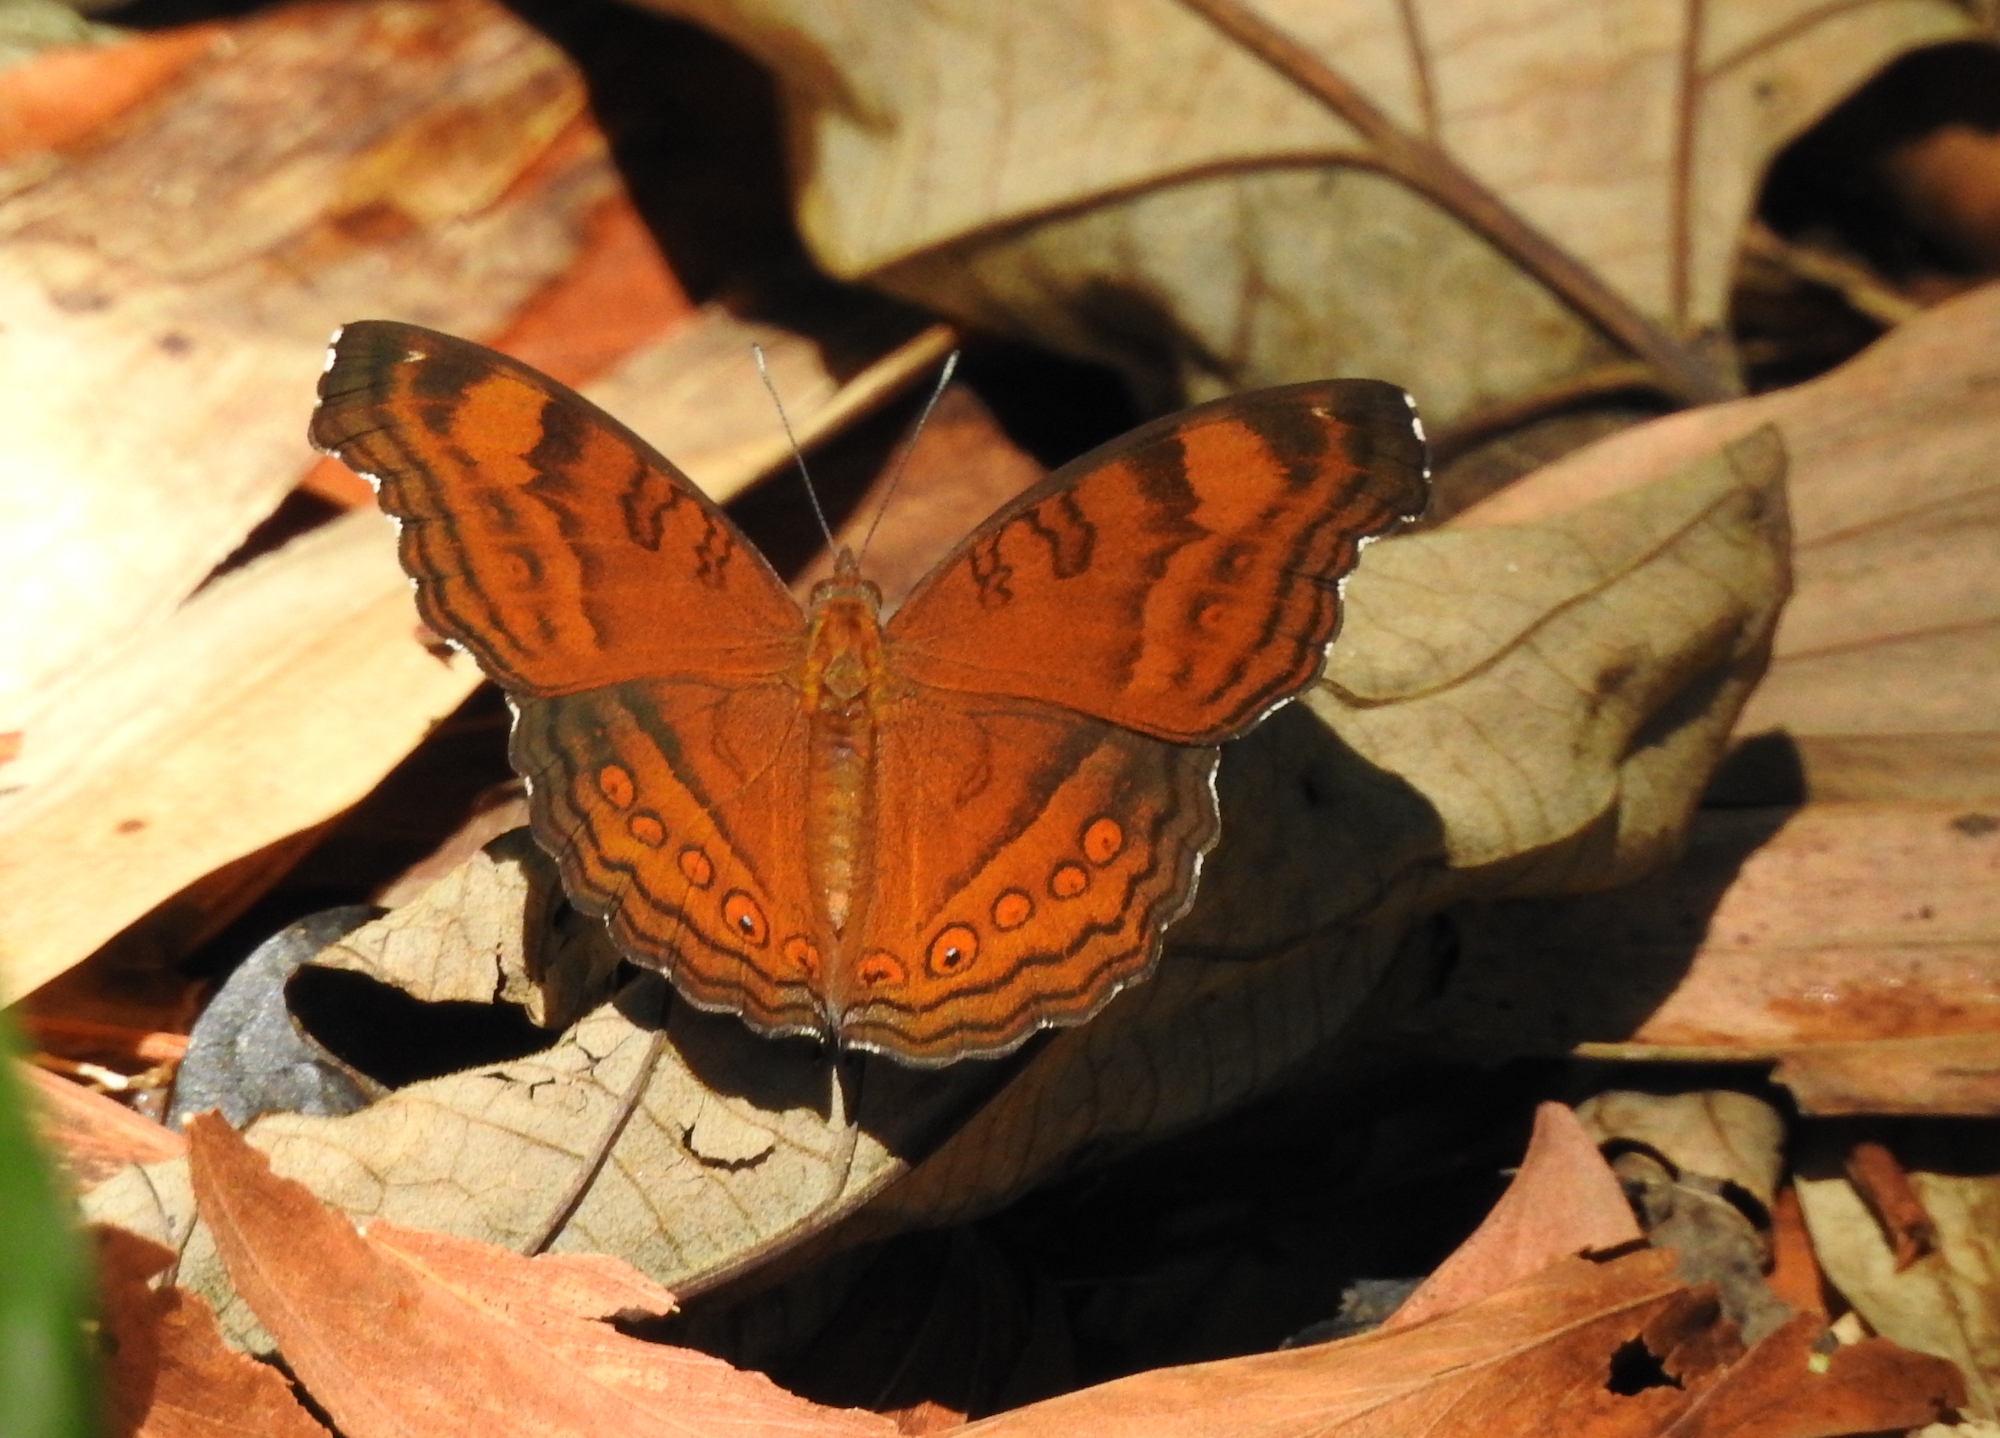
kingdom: Animalia
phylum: Arthropoda
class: Insecta
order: Lepidoptera
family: Nymphalidae
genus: Junonia
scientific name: Junonia hedonia
